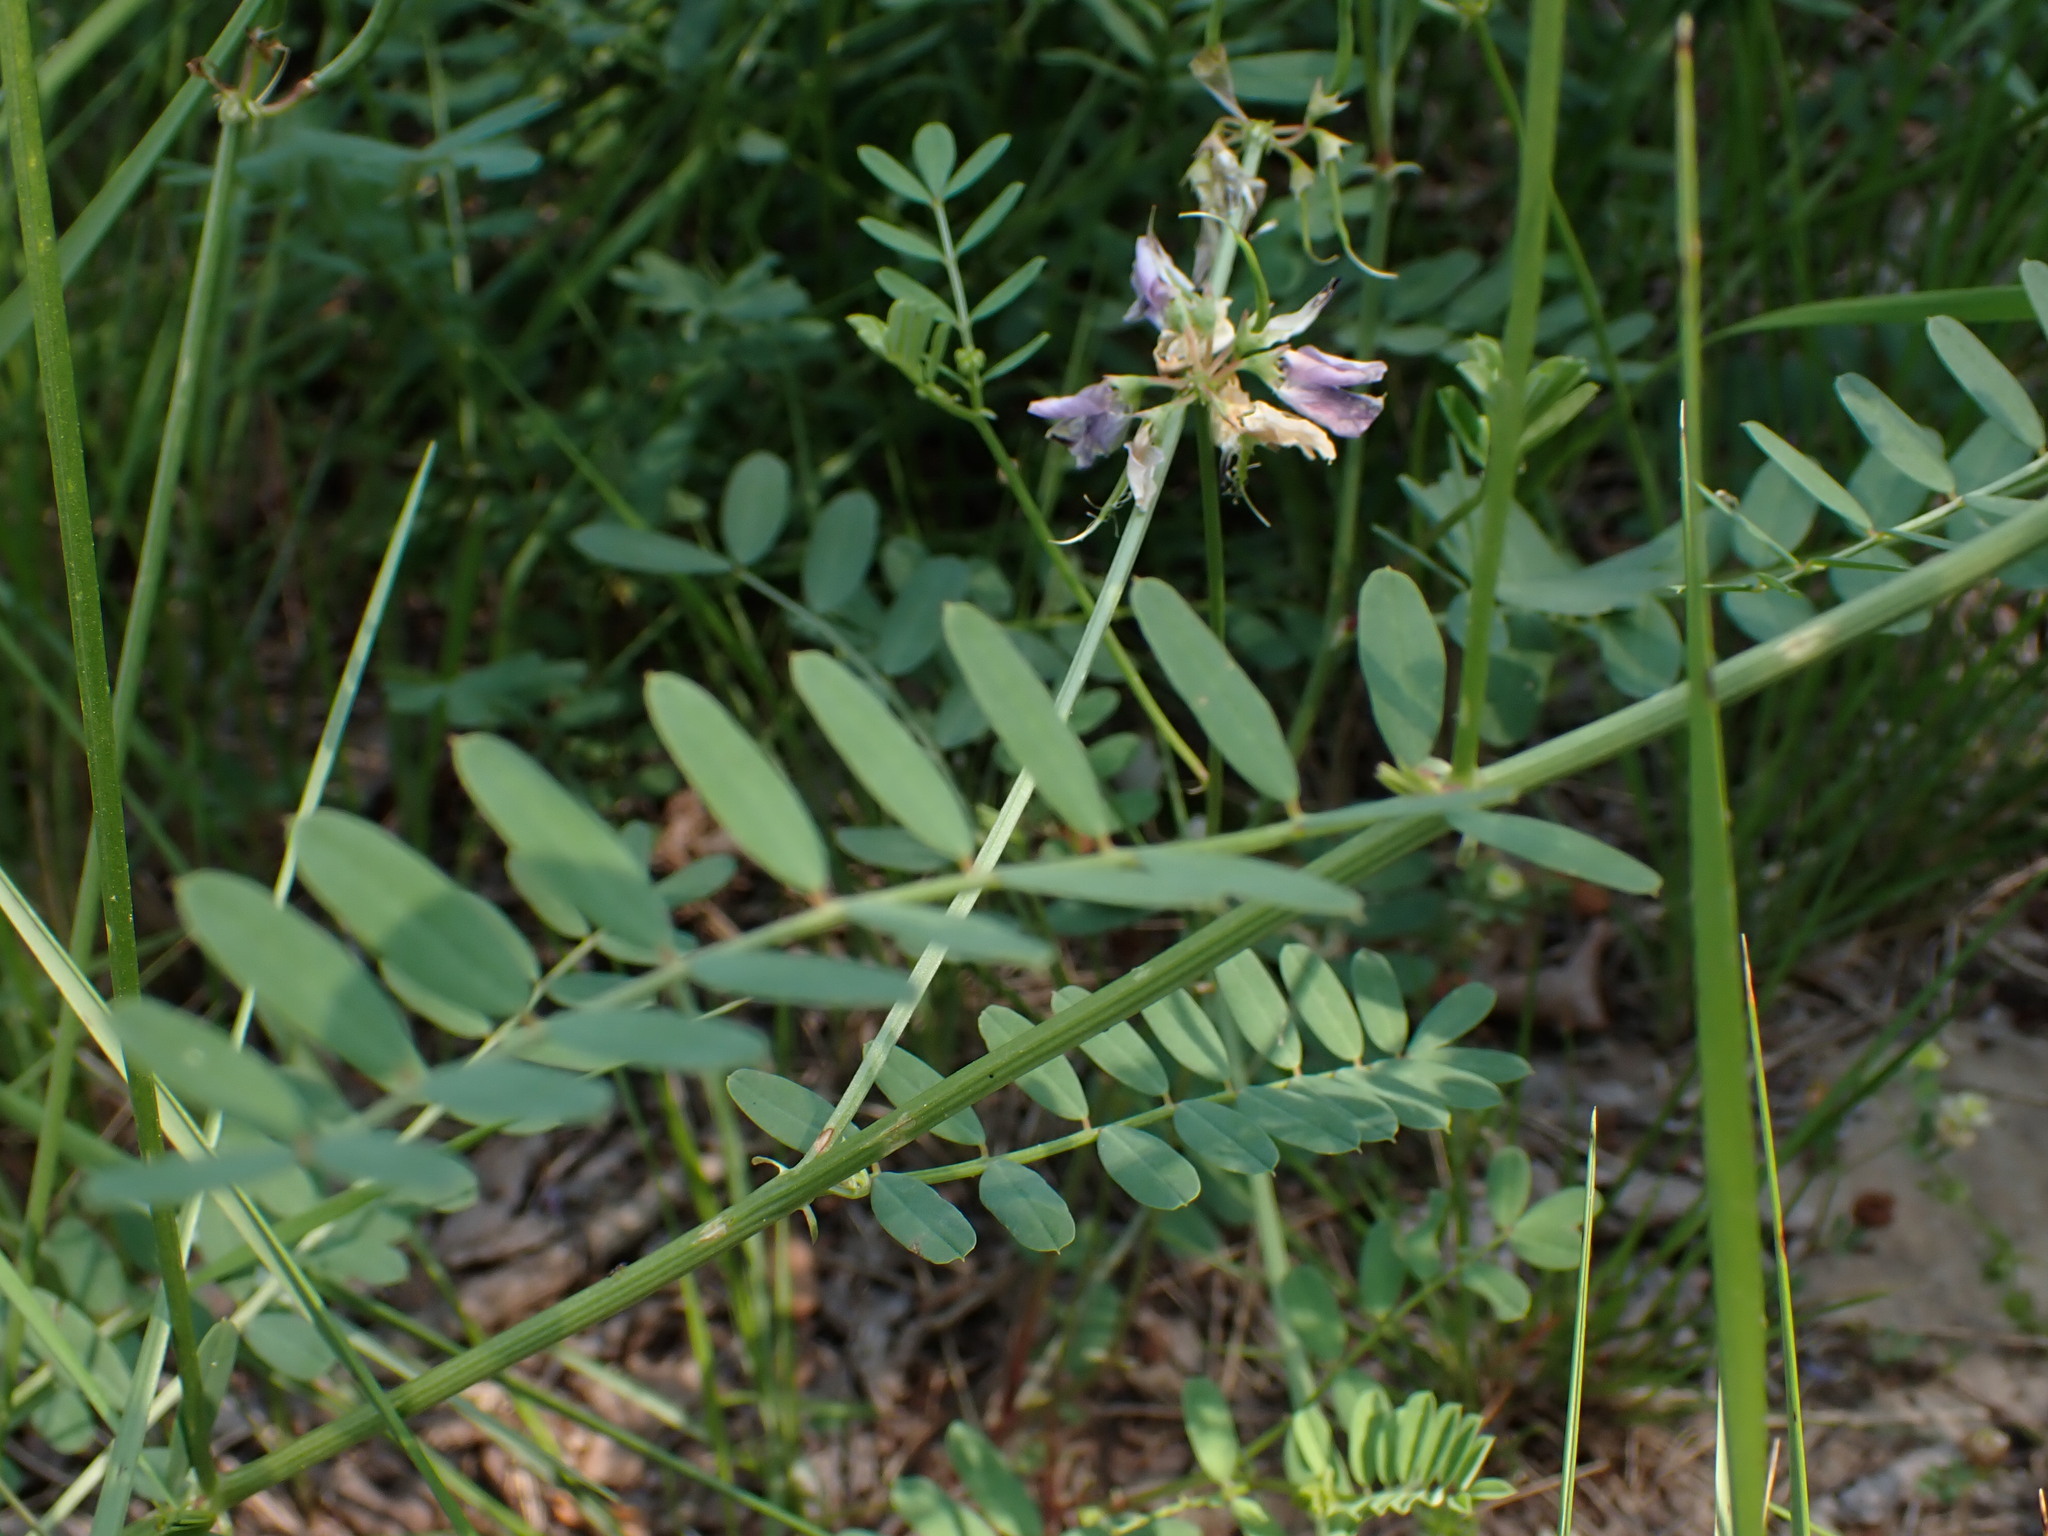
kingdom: Plantae
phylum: Tracheophyta
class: Magnoliopsida
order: Fabales
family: Fabaceae
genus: Coronilla
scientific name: Coronilla varia
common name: Crownvetch
